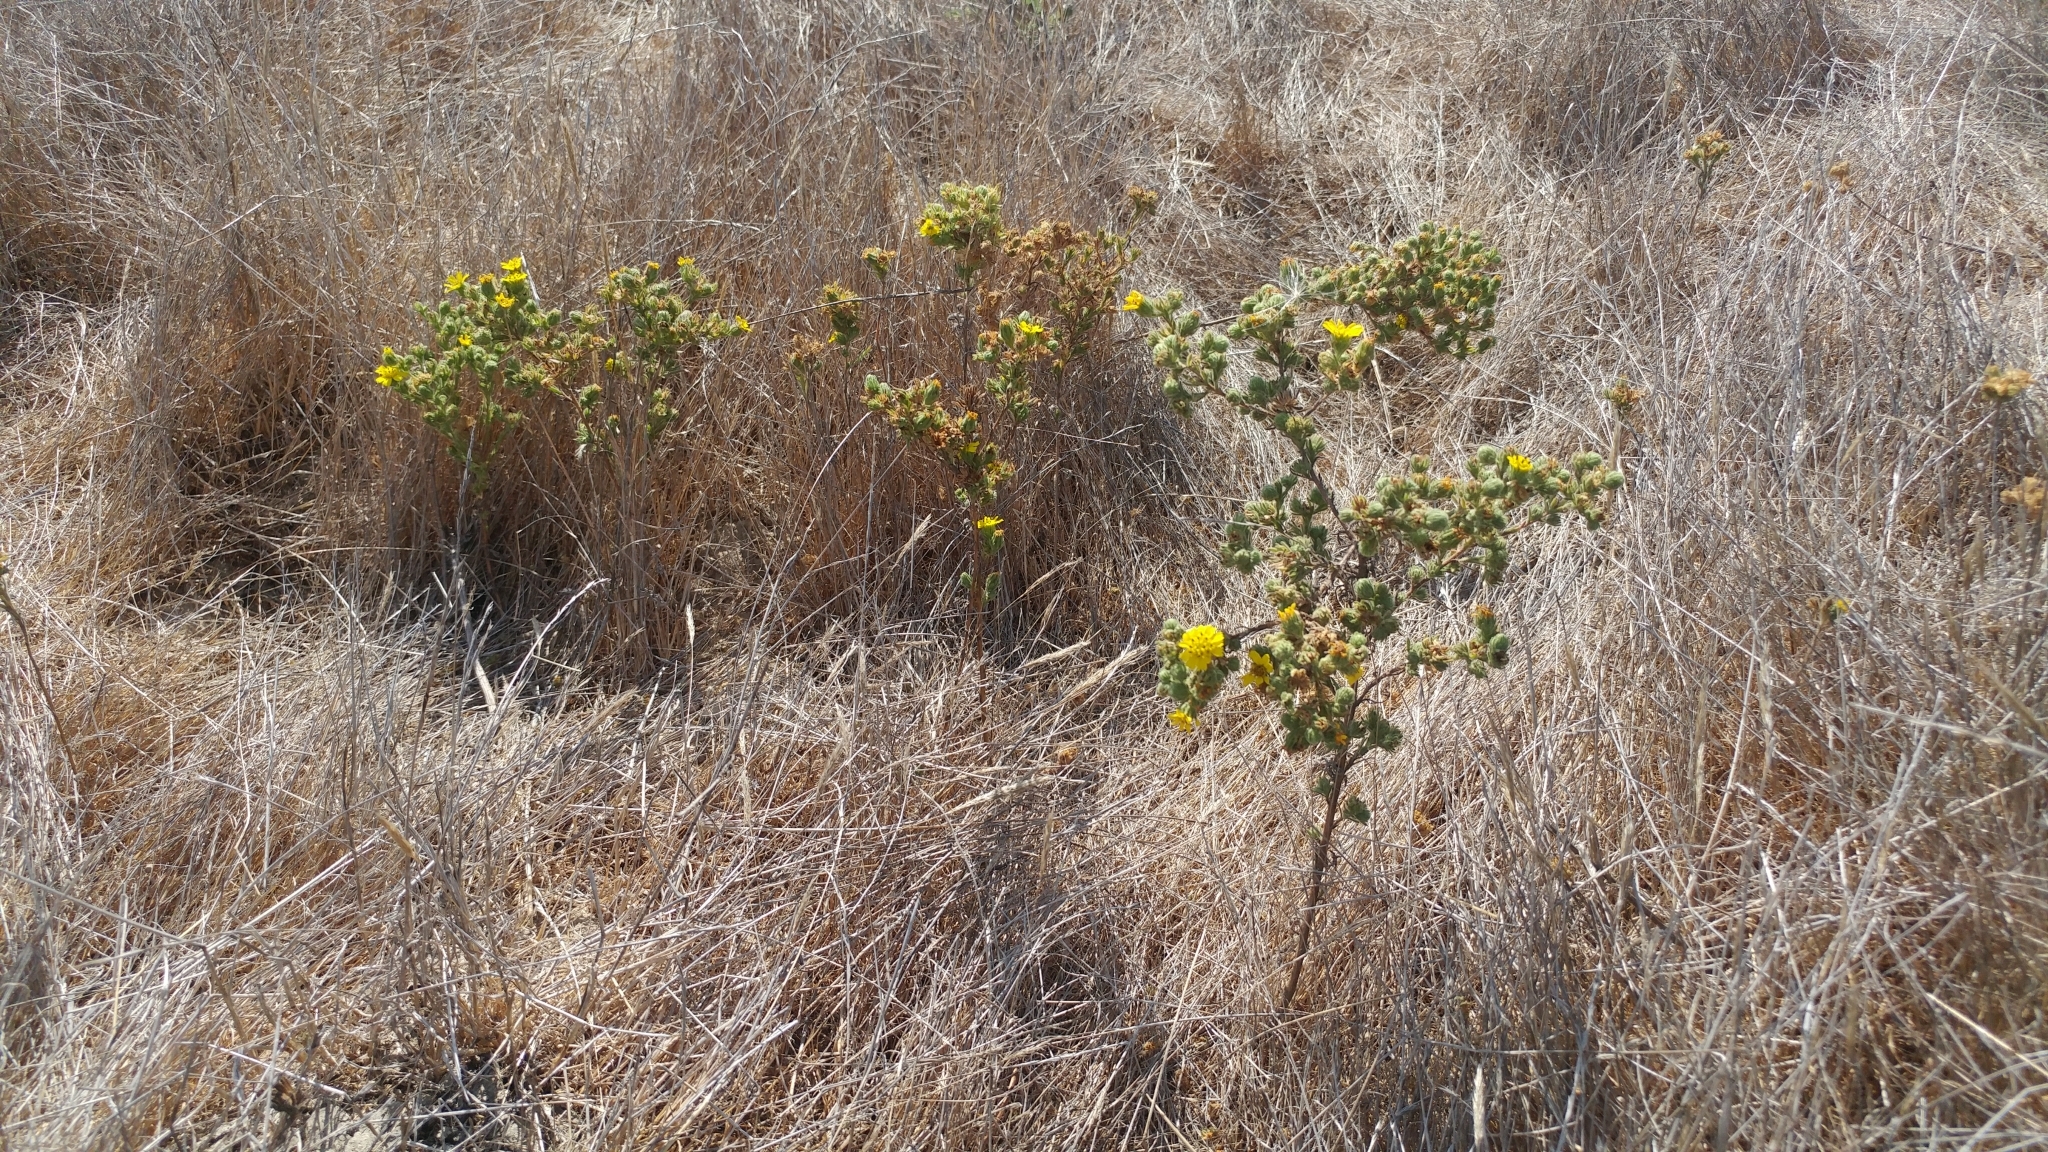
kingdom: Plantae
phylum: Tracheophyta
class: Magnoliopsida
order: Asterales
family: Asteraceae
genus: Deinandra
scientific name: Deinandra increscens
